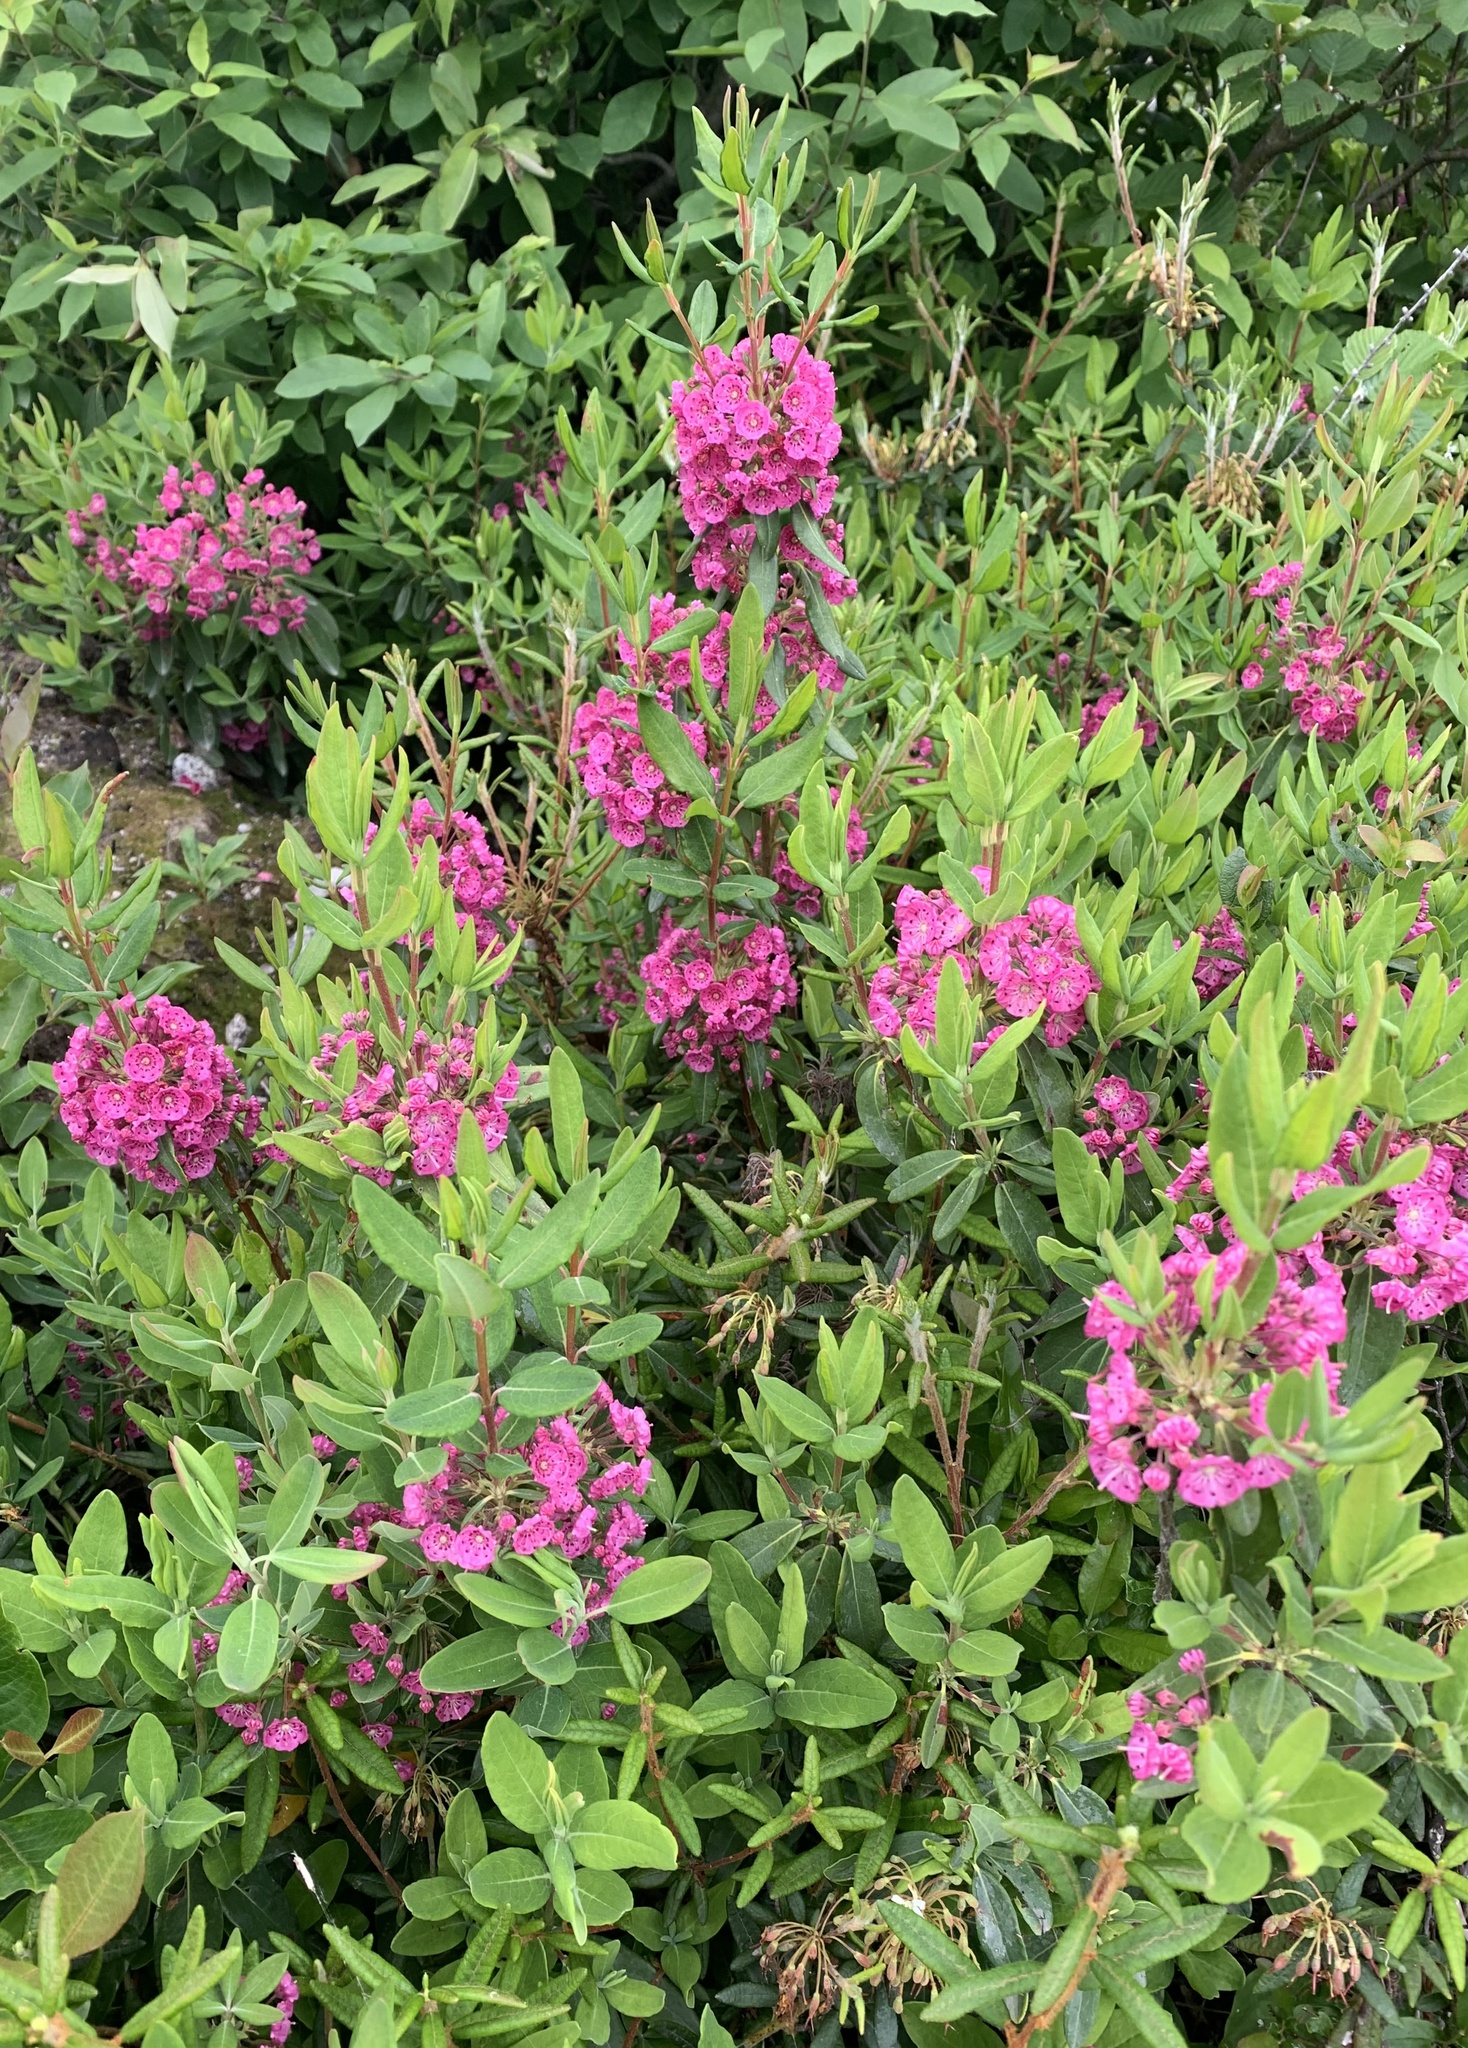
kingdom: Plantae
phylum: Tracheophyta
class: Magnoliopsida
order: Ericales
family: Ericaceae
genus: Kalmia
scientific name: Kalmia angustifolia
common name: Sheep-laurel
